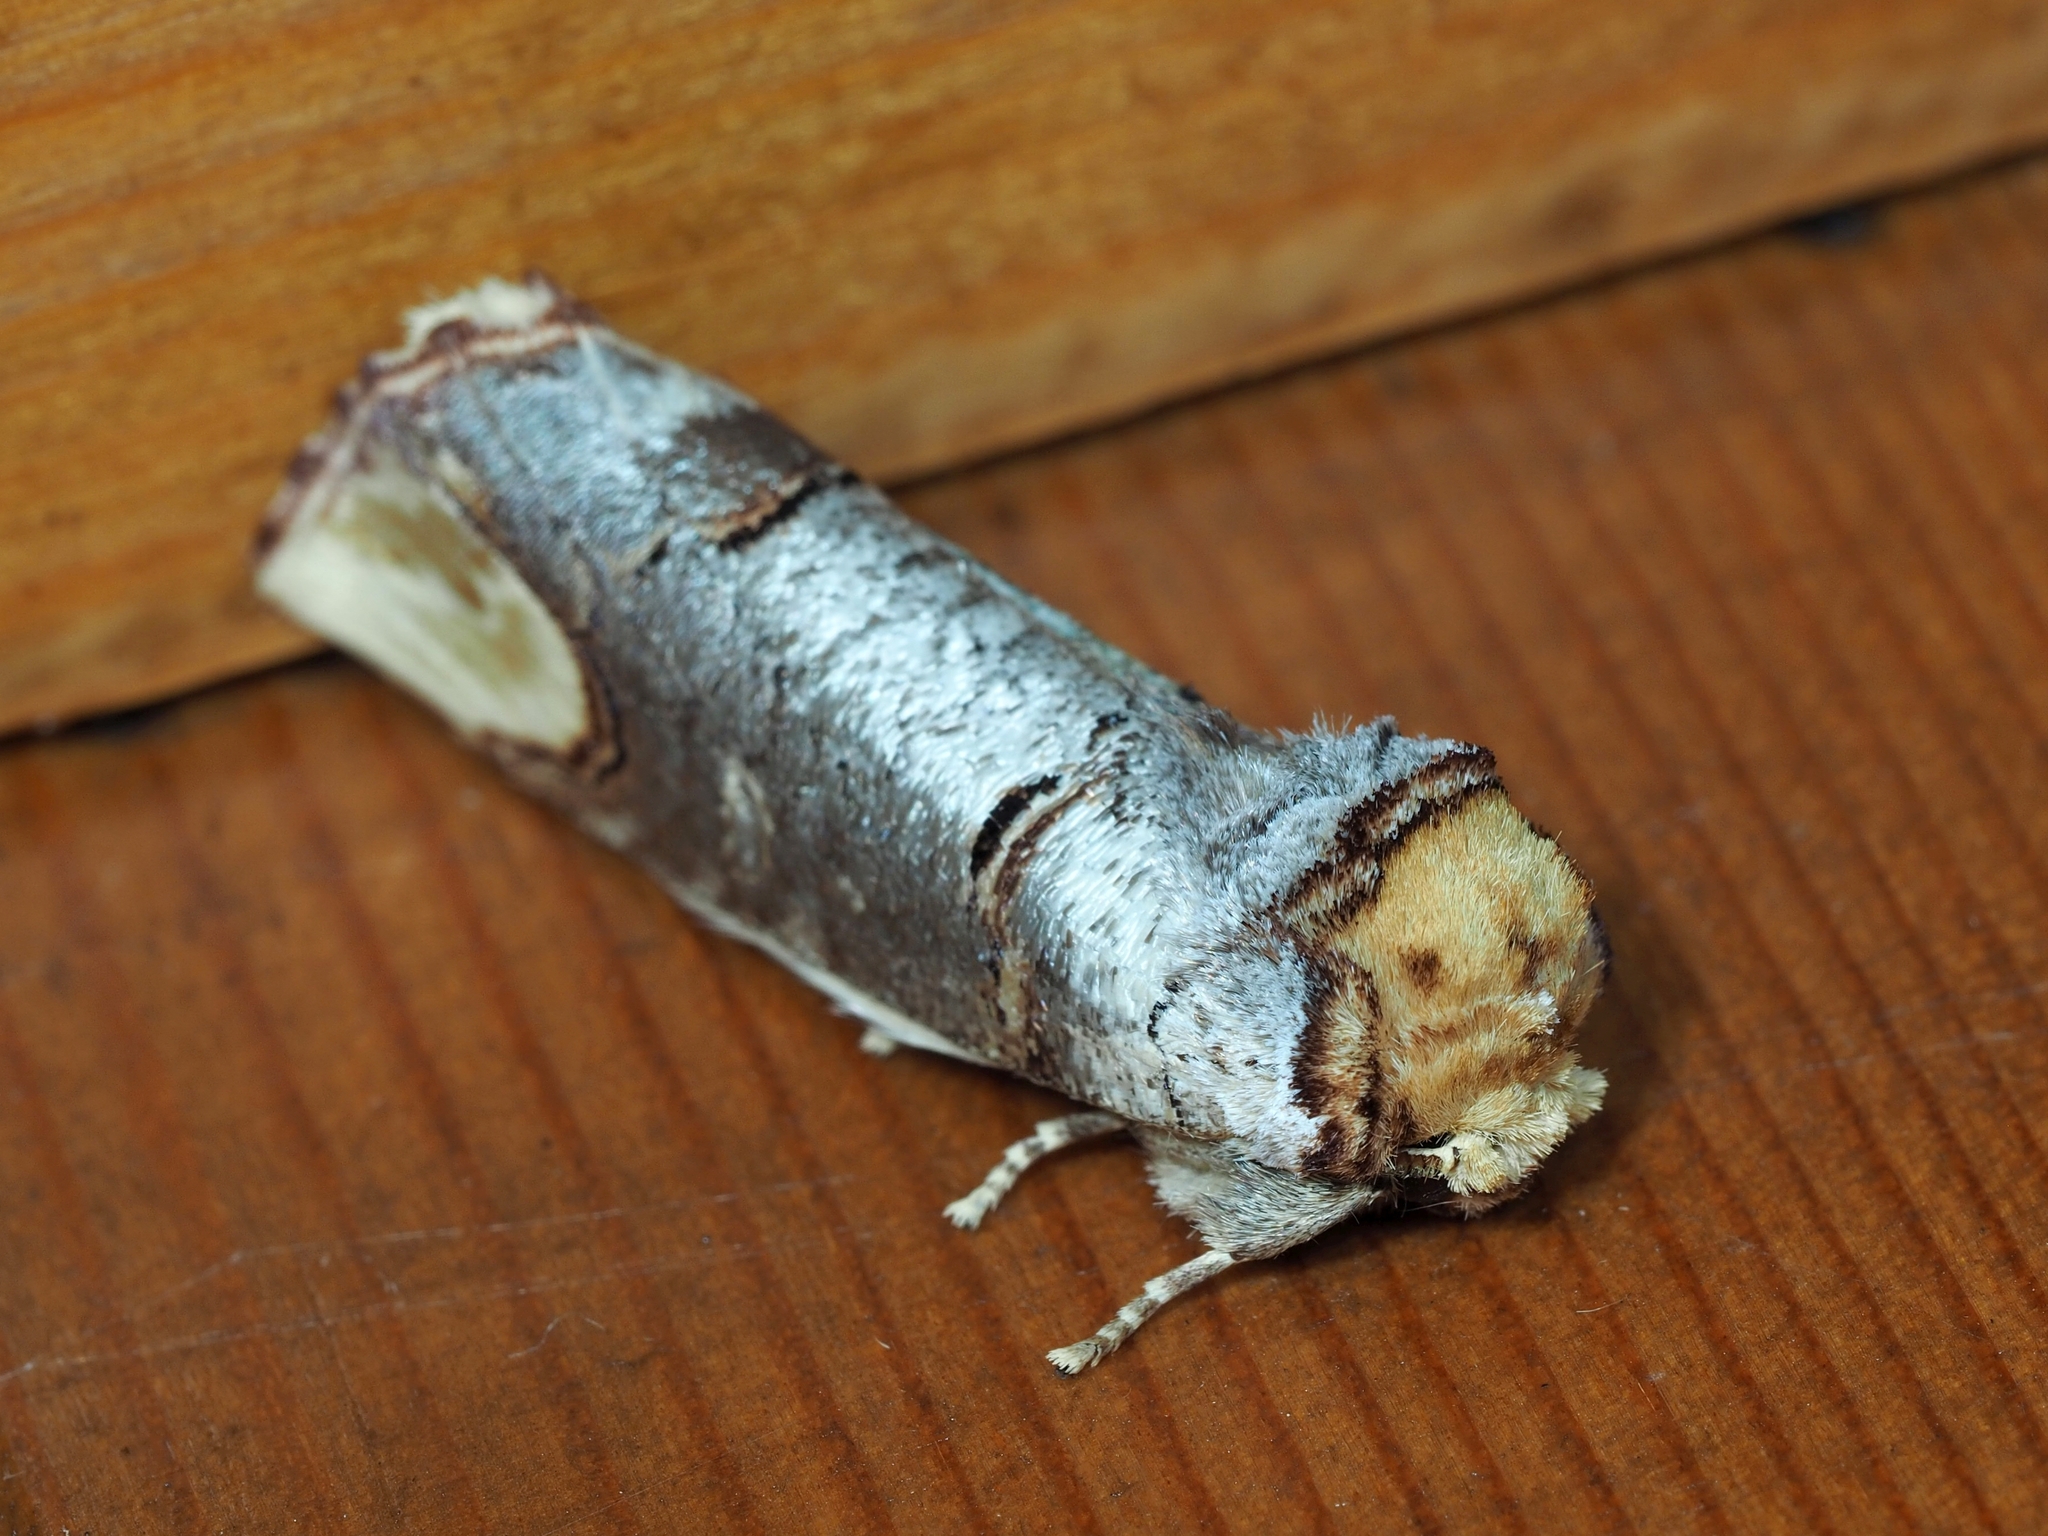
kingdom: Animalia
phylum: Arthropoda
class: Insecta
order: Lepidoptera
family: Notodontidae
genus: Phalera
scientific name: Phalera bucephala
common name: Buff-tip
